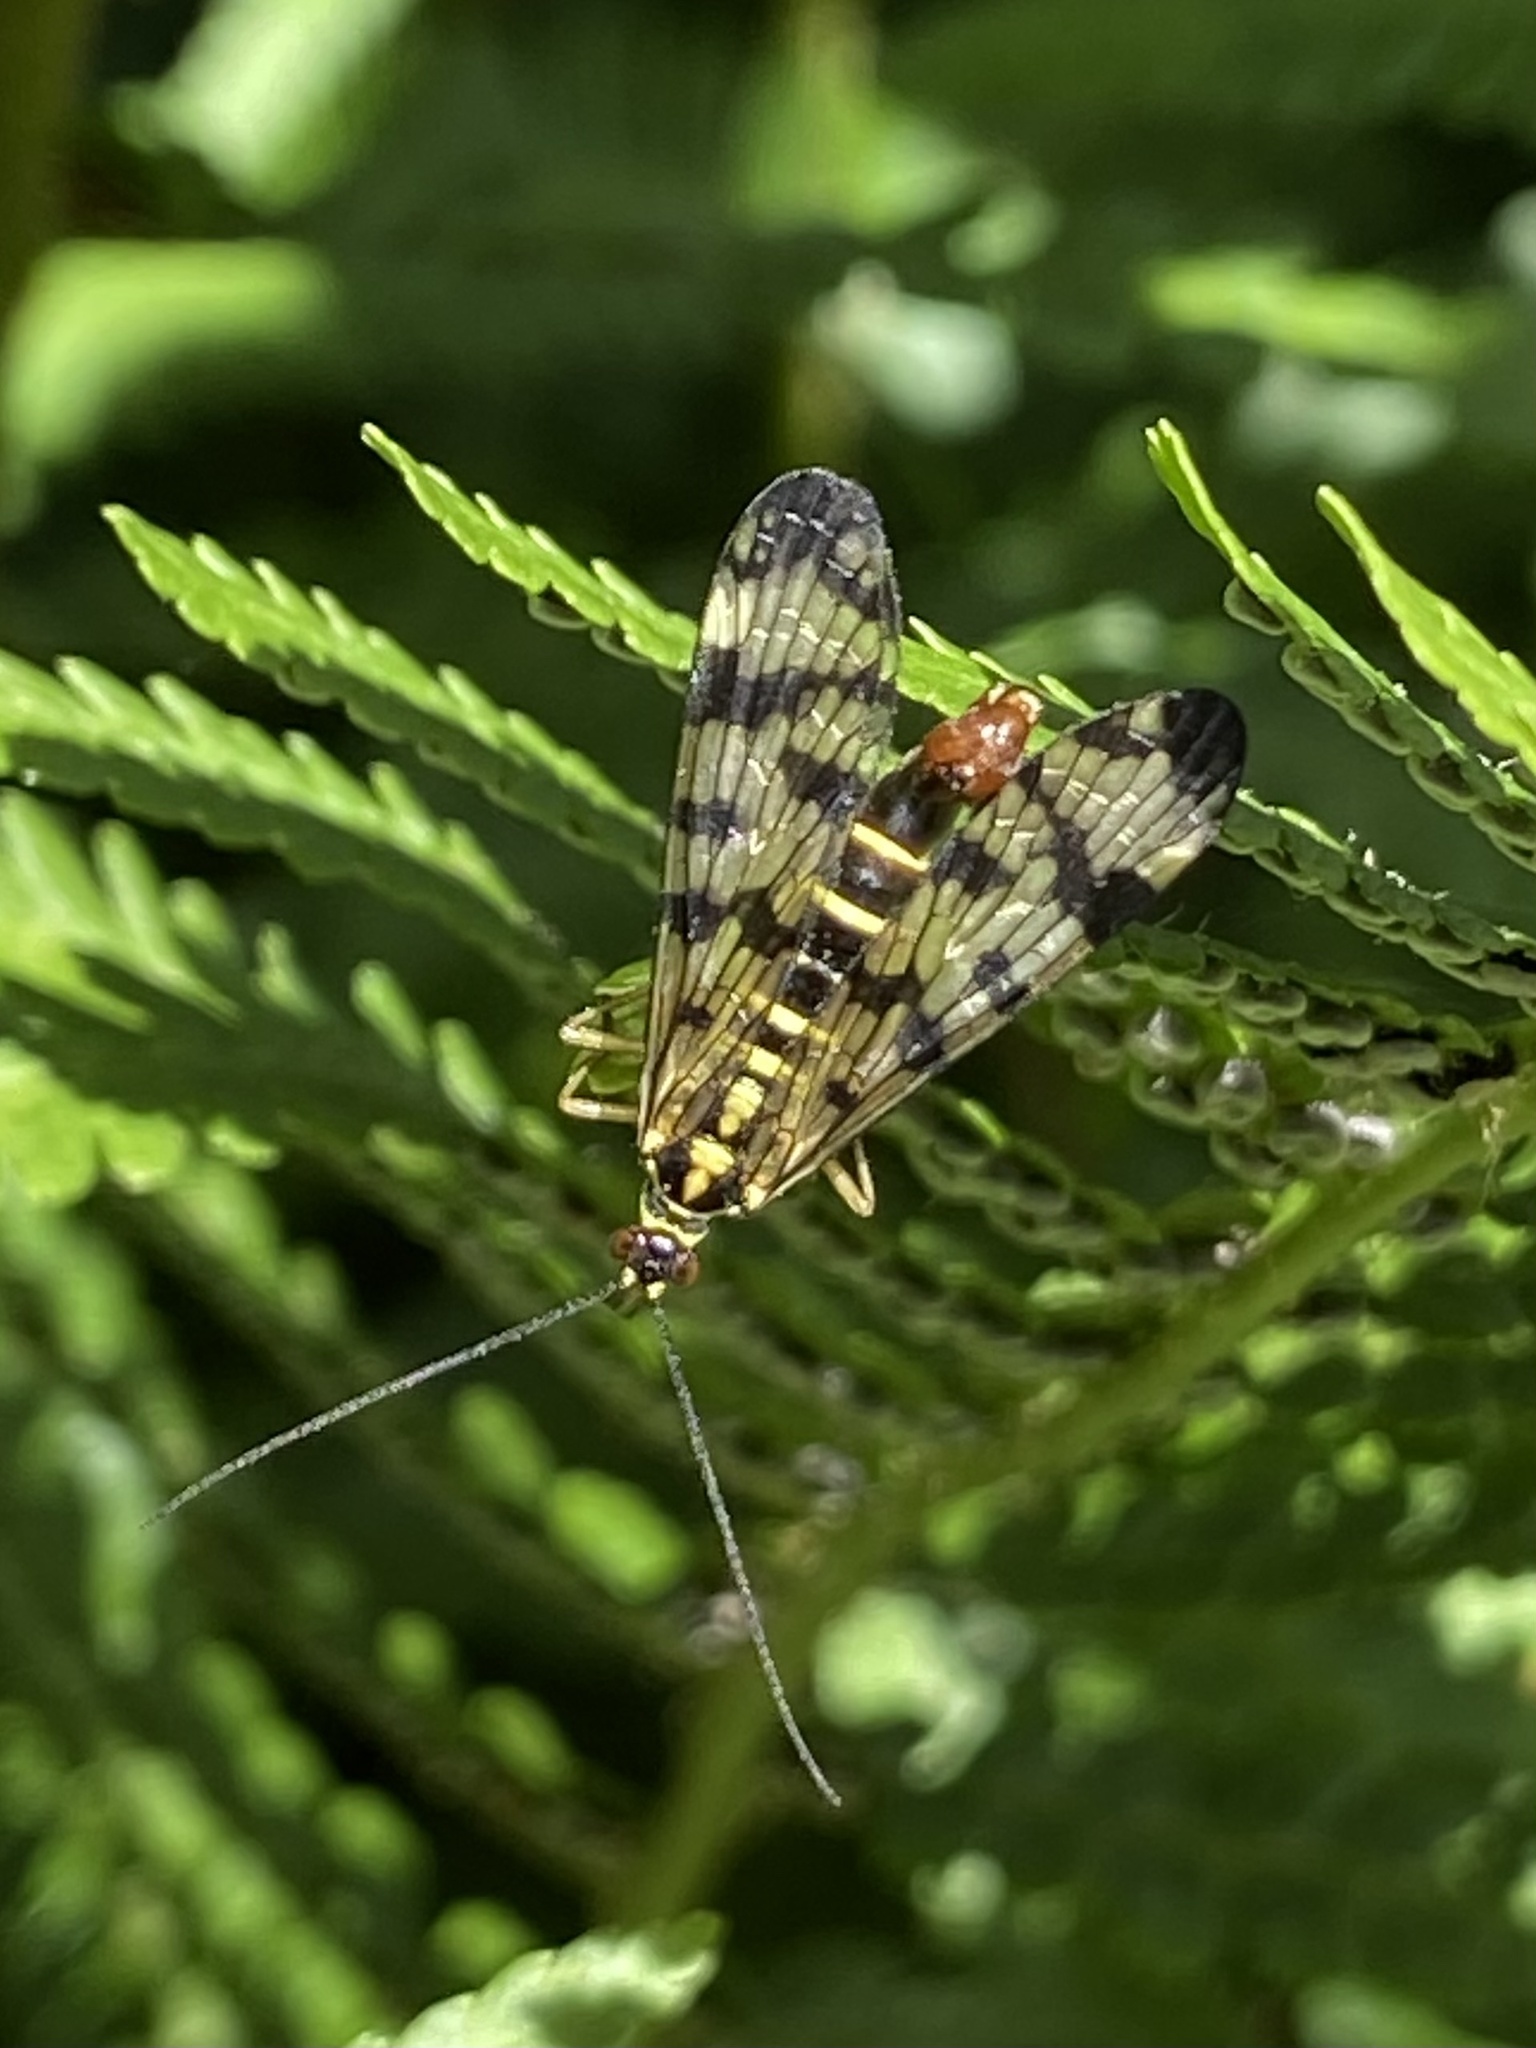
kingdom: Animalia
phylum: Arthropoda
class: Insecta
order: Mecoptera
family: Panorpidae
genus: Panorpa
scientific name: Panorpa communis
